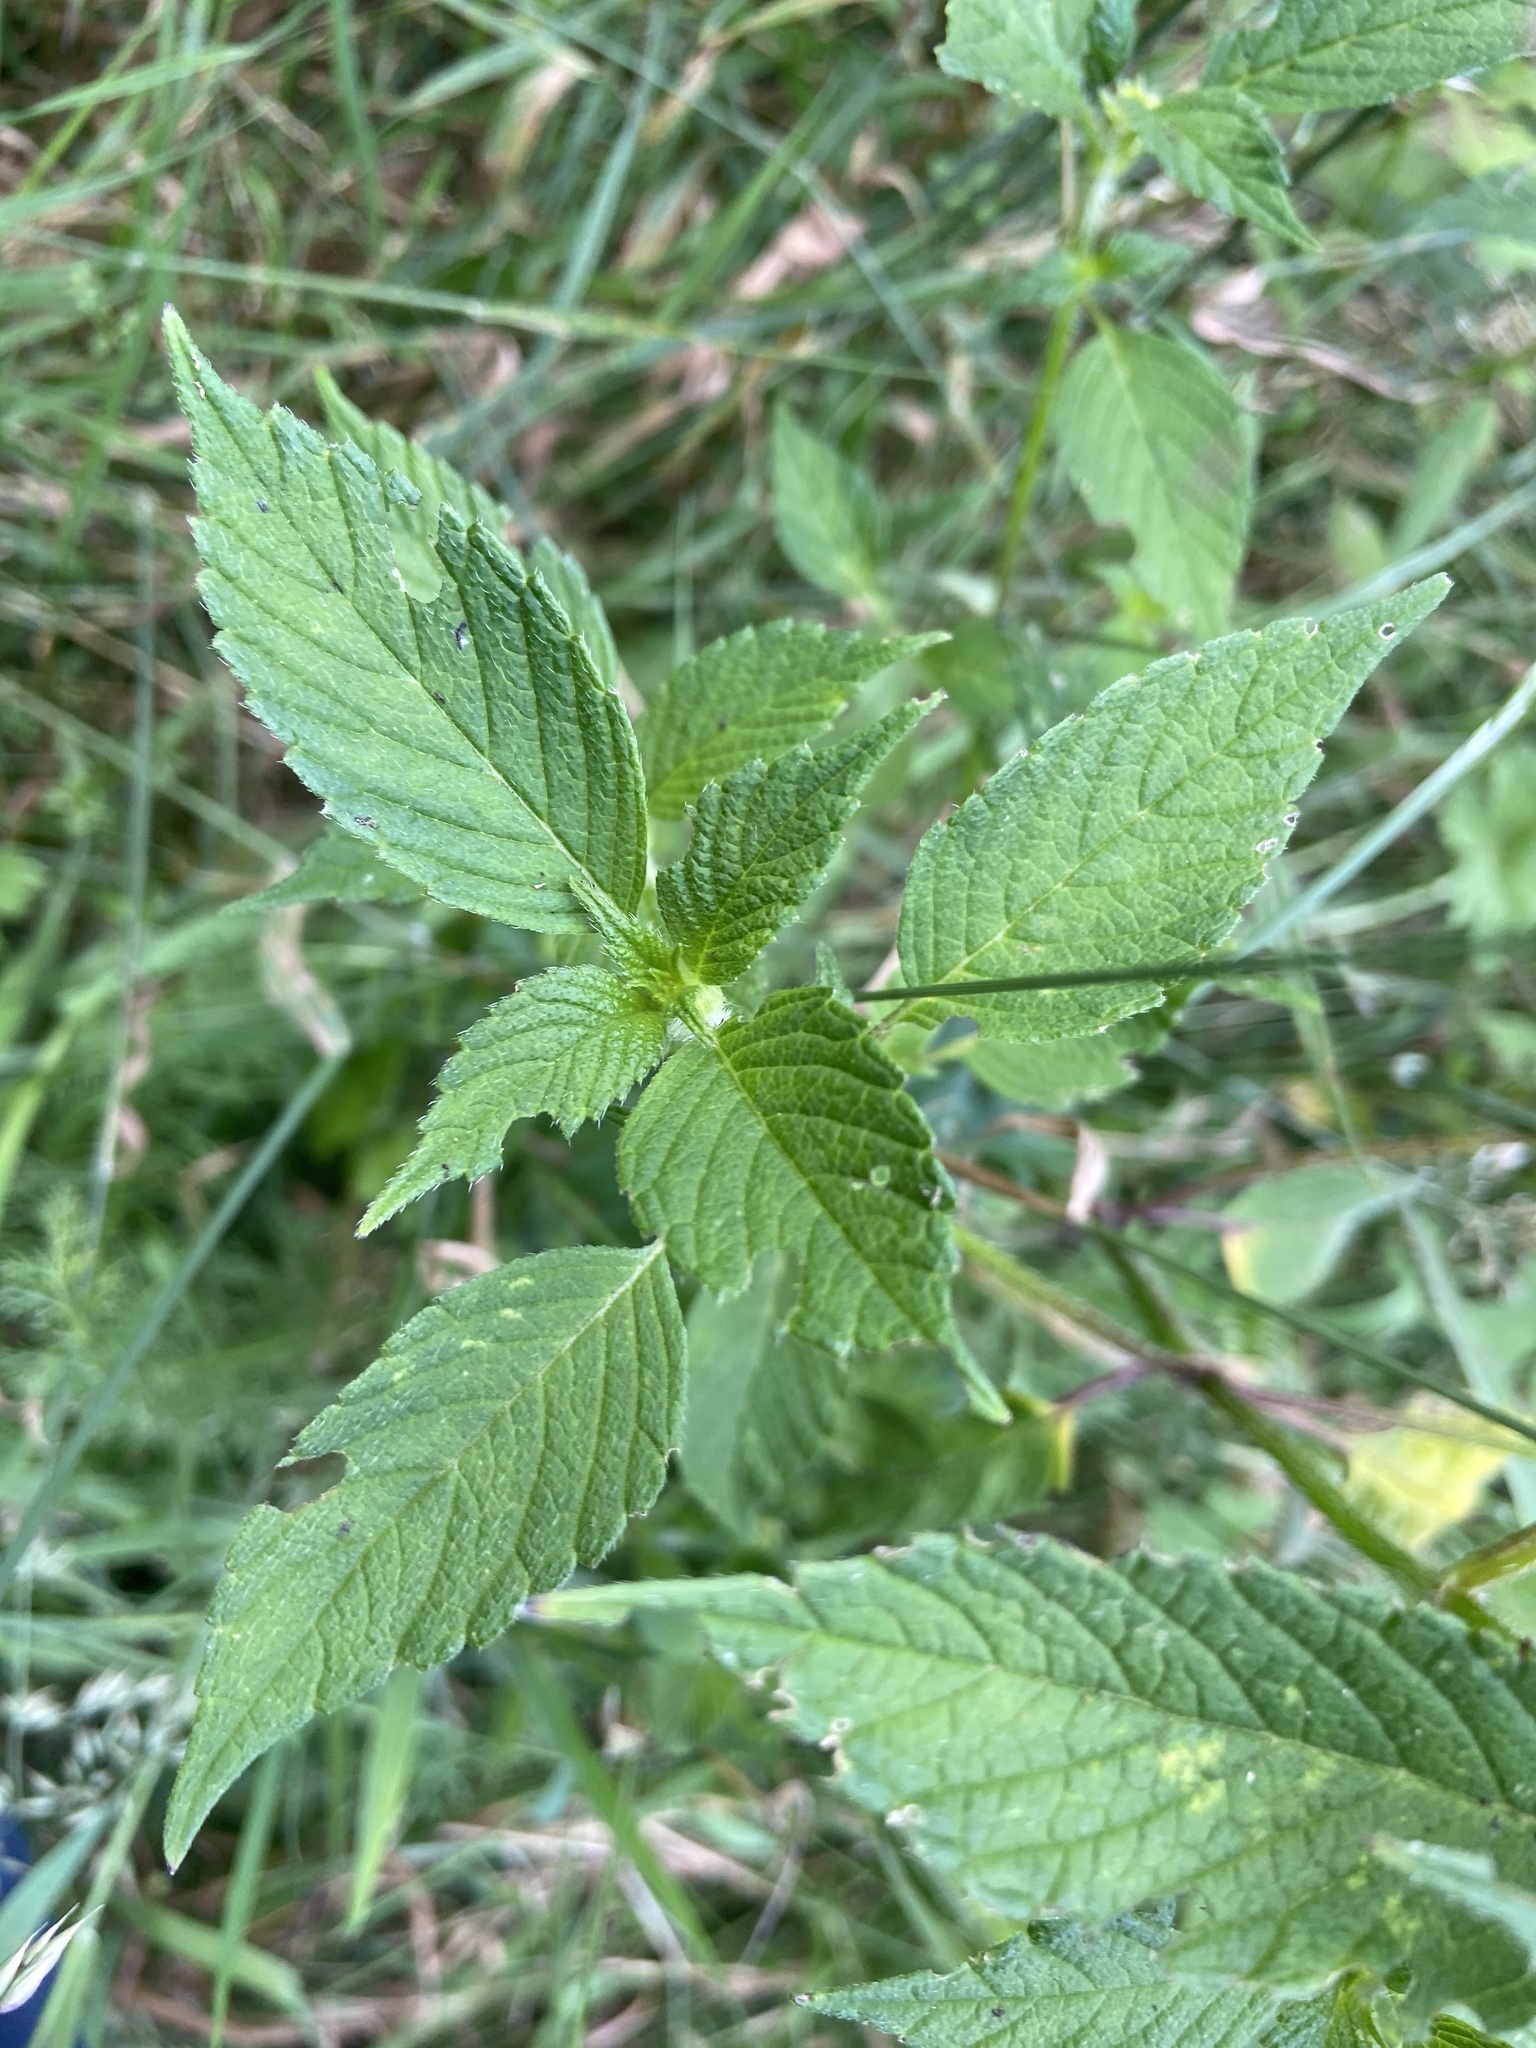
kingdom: Animalia
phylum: Arthropoda
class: Insecta
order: Coleoptera
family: Chrysomelidae
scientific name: Chrysomelidae
